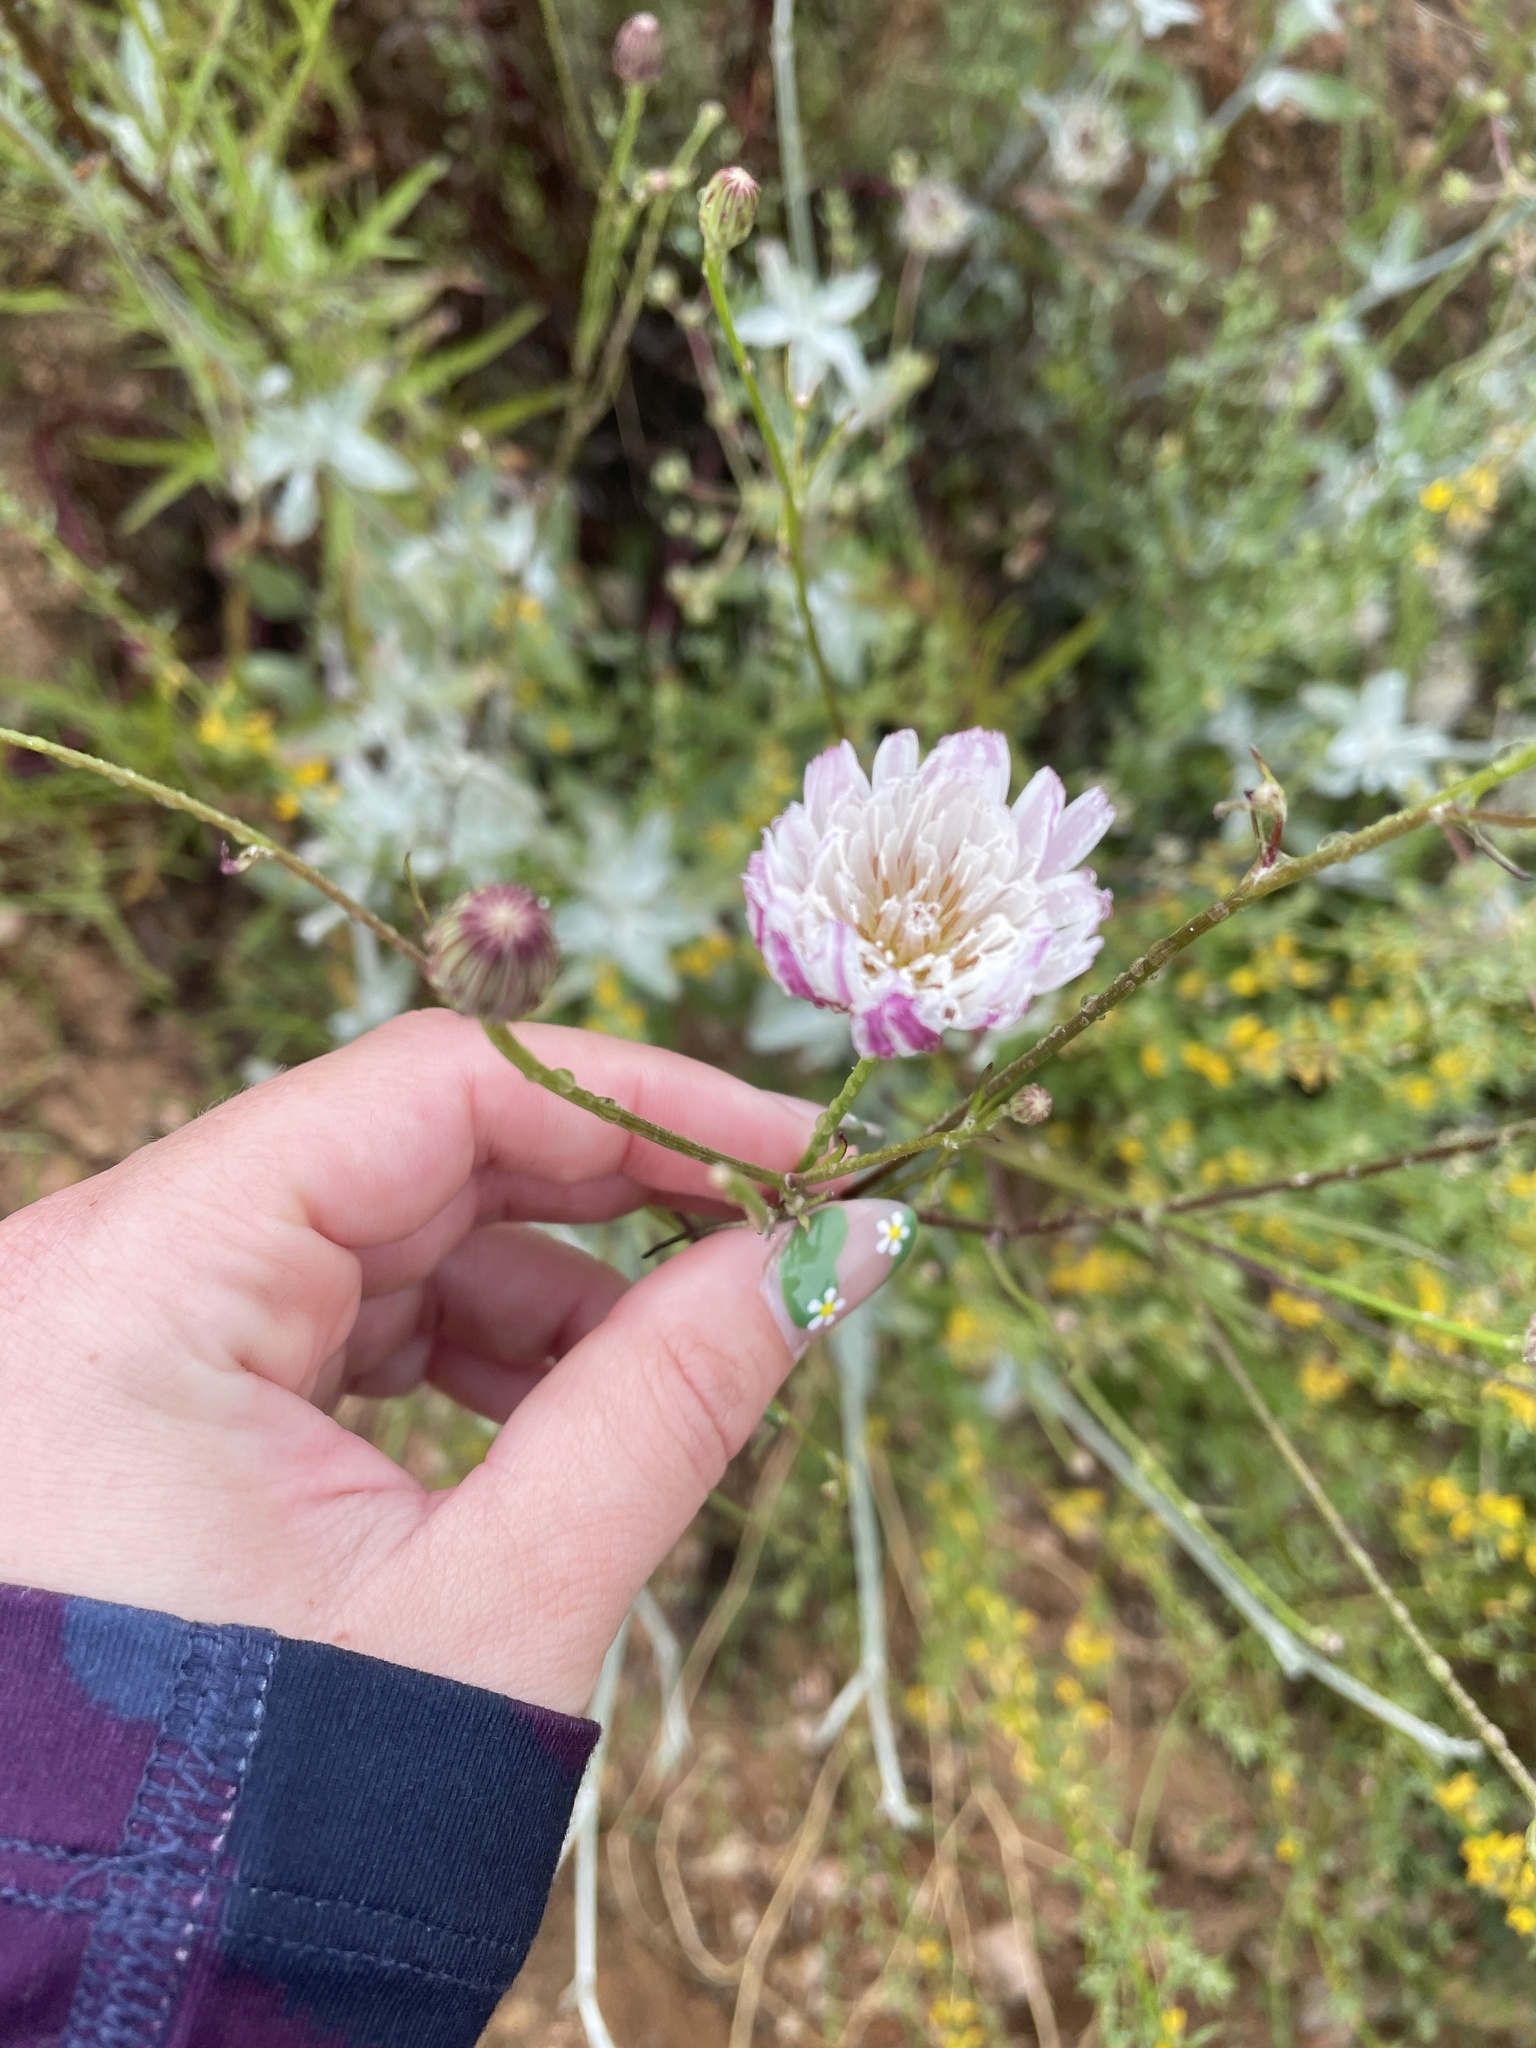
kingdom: Plantae
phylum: Tracheophyta
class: Magnoliopsida
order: Asterales
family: Asteraceae
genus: Malacothrix
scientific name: Malacothrix saxatilis
